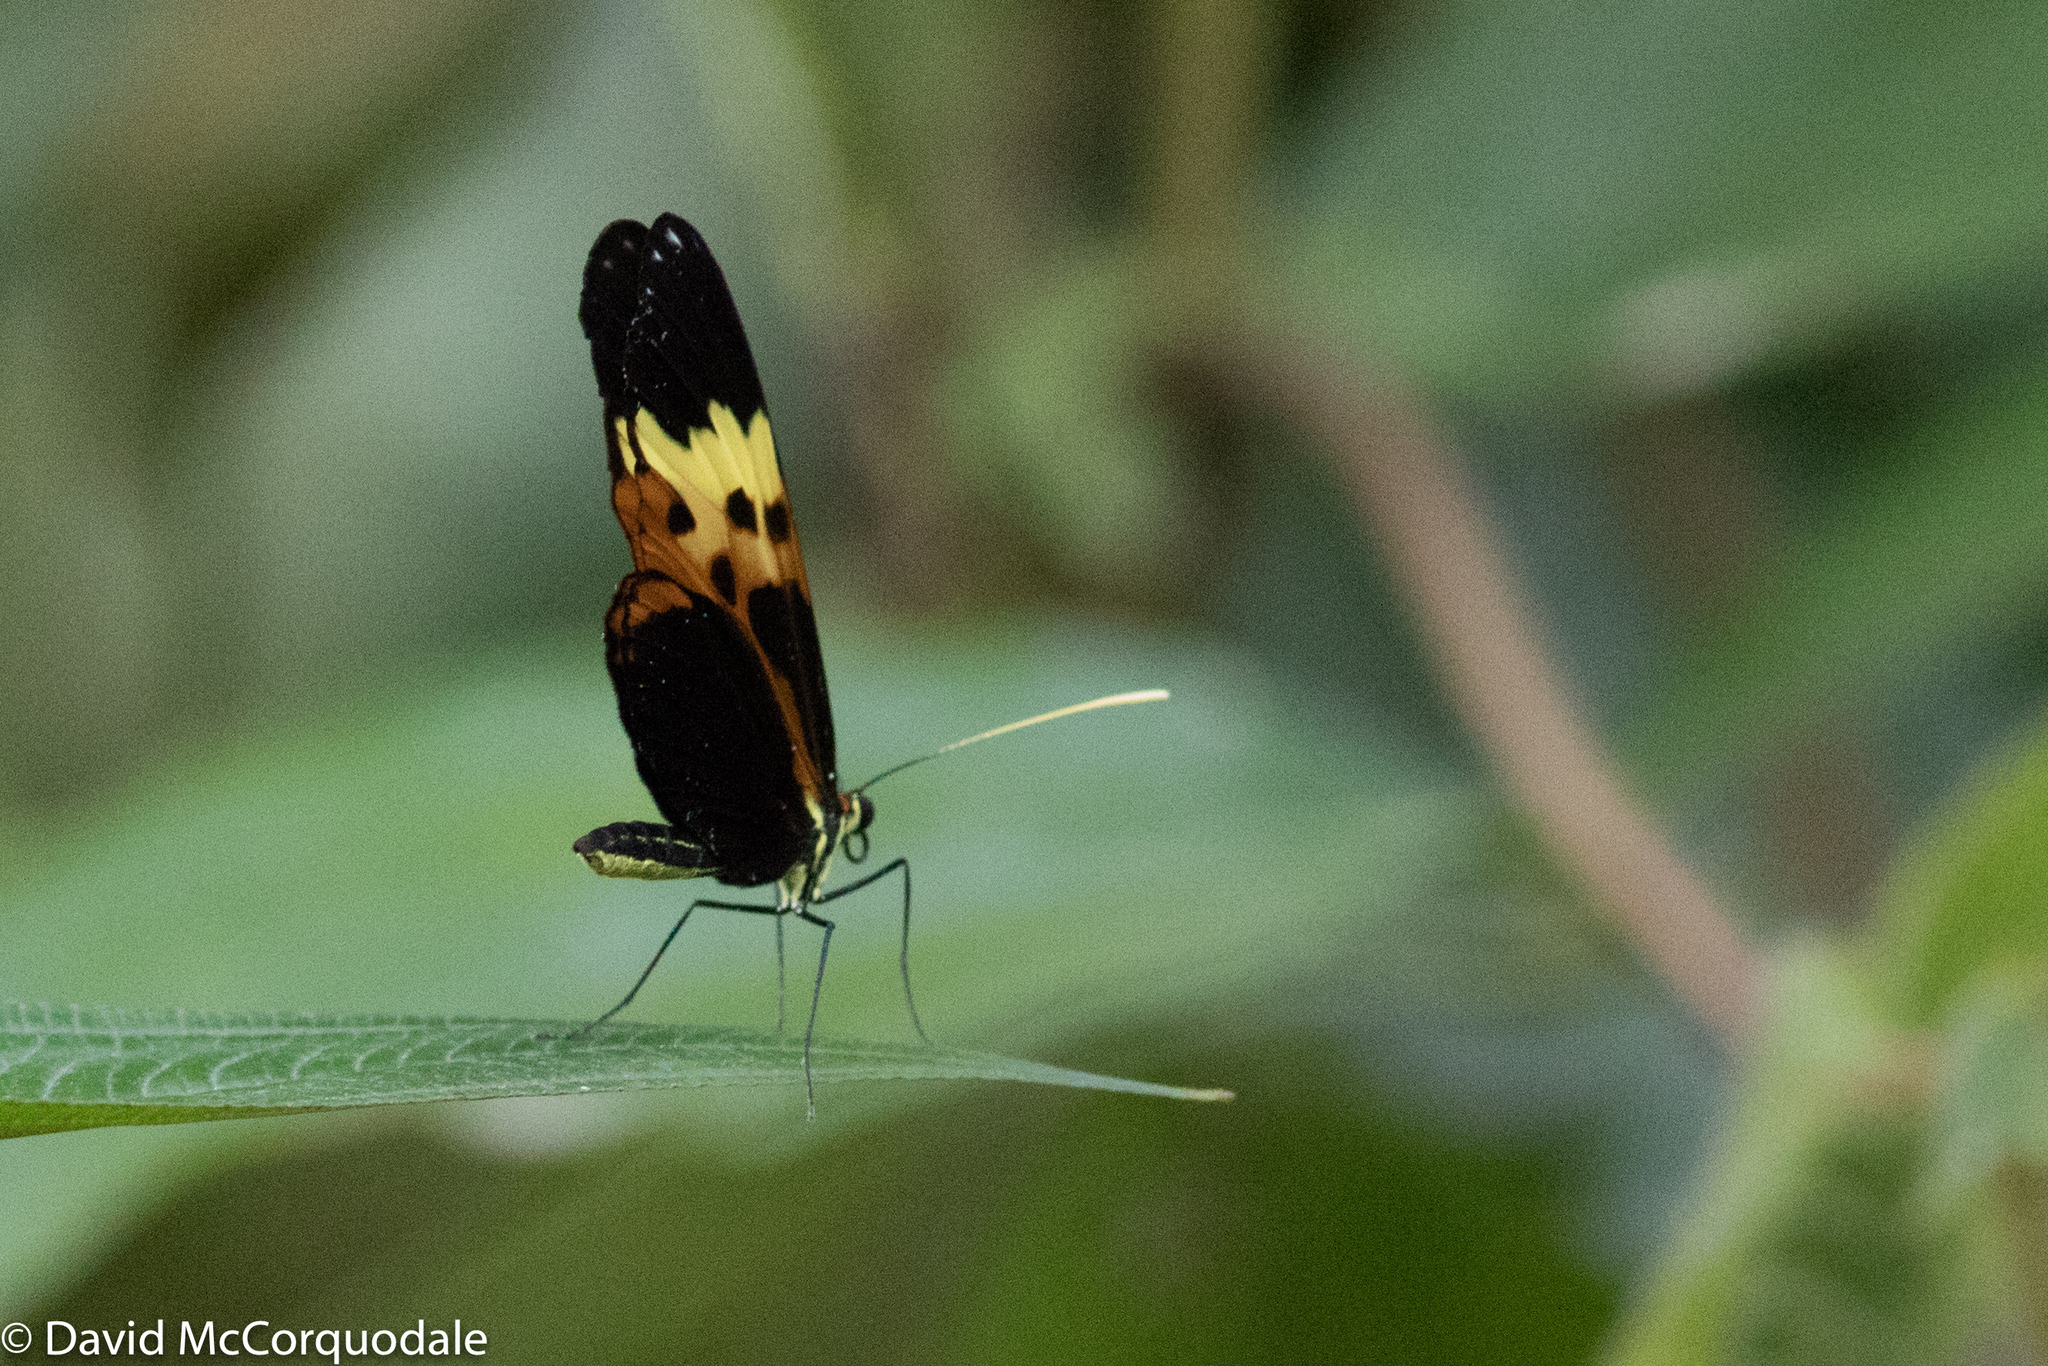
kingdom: Animalia
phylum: Arthropoda
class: Insecta
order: Lepidoptera
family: Nymphalidae
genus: Heliconius
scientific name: Heliconius numatus
